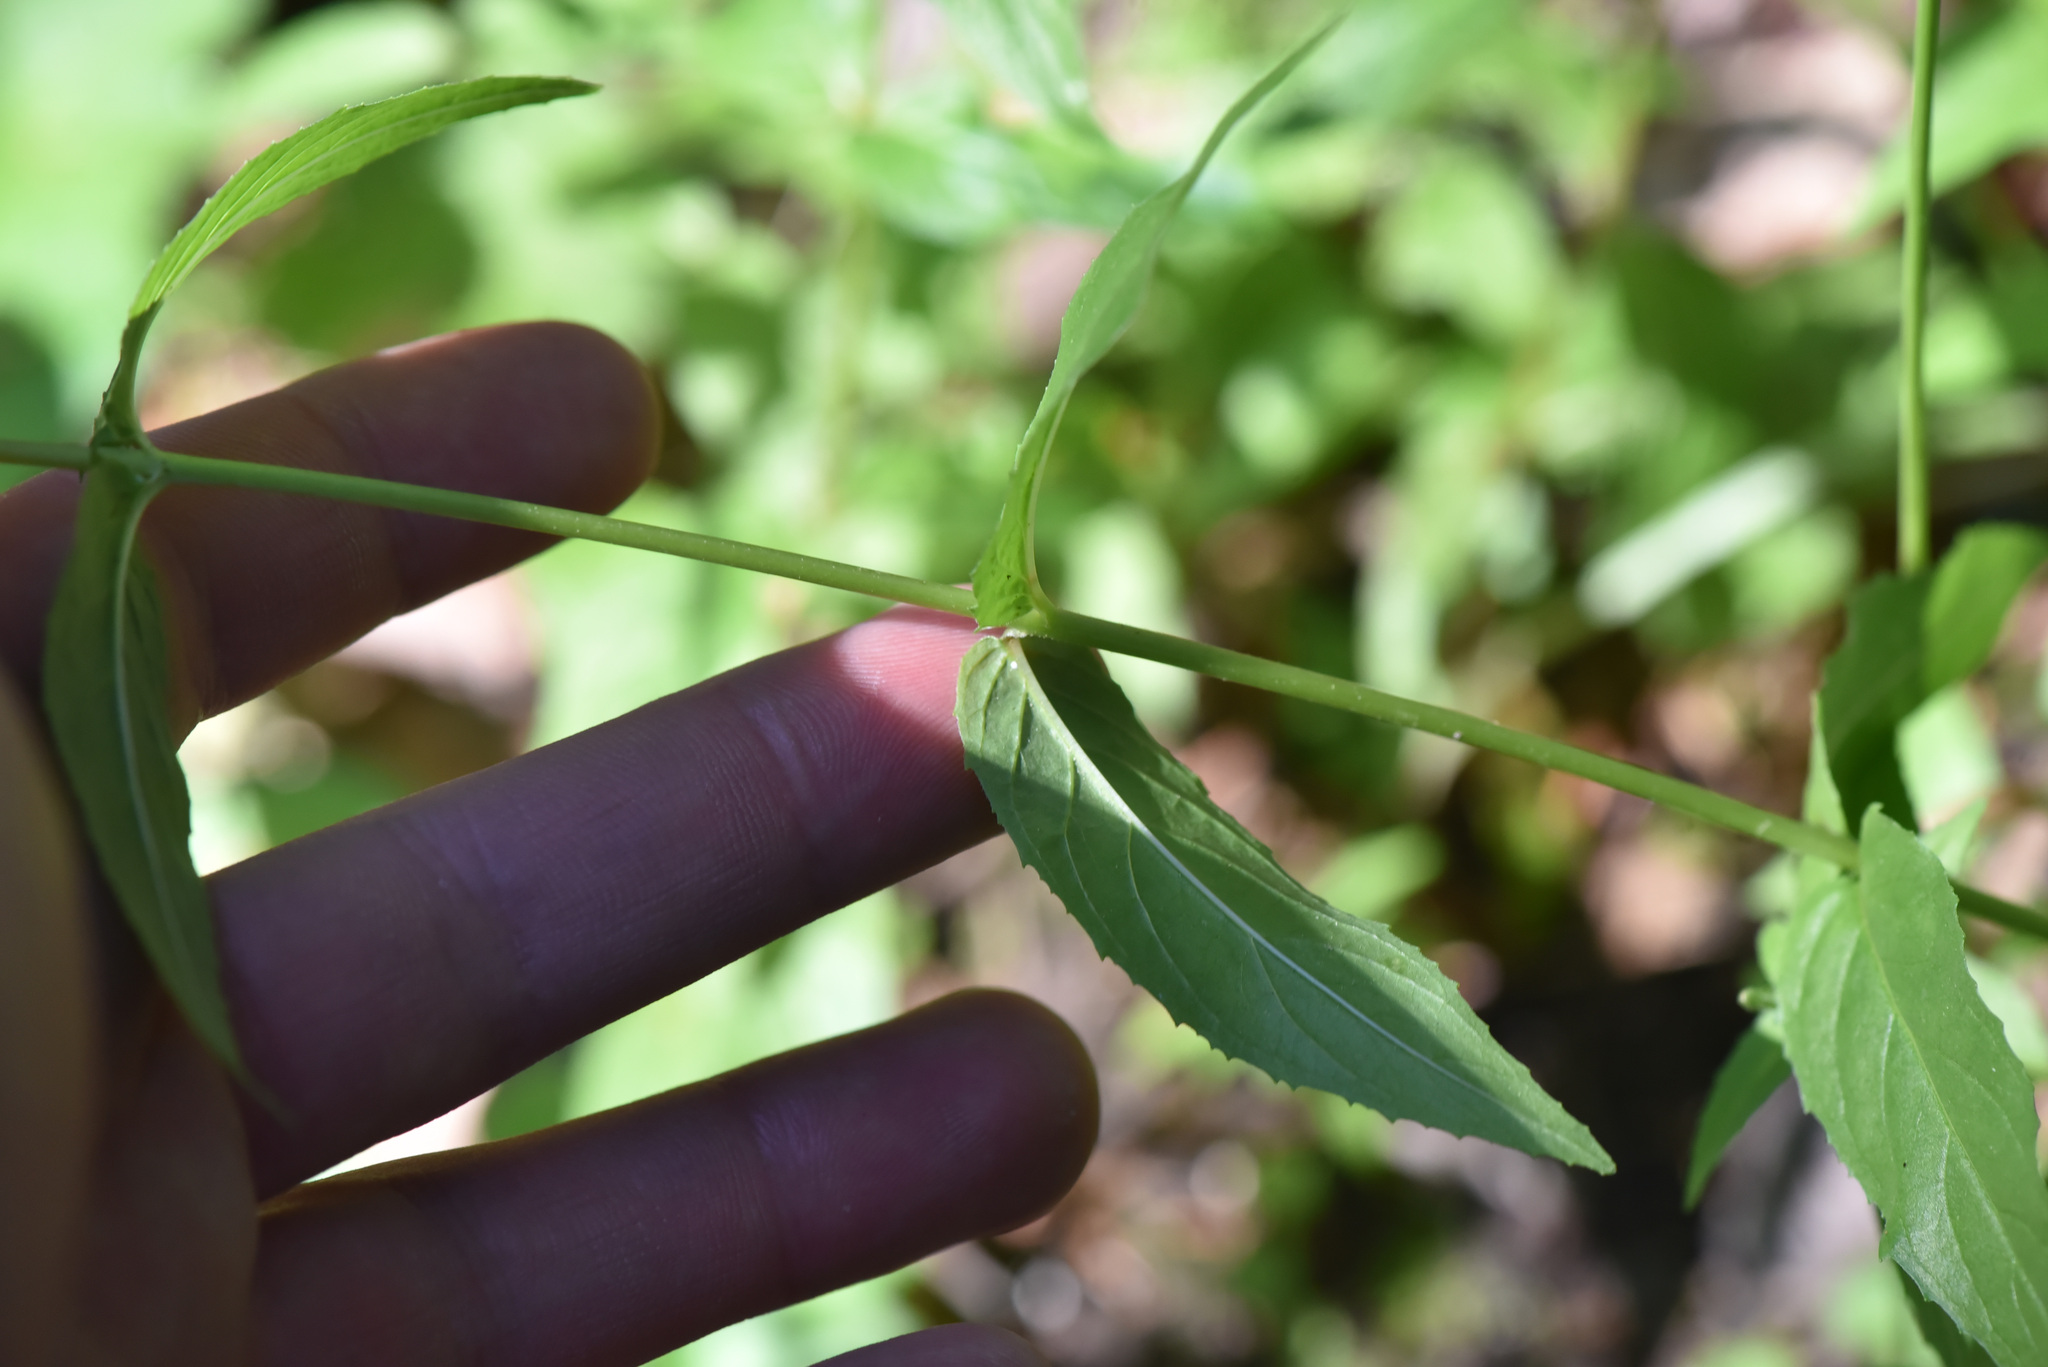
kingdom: Plantae
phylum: Tracheophyta
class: Magnoliopsida
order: Myrtales
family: Onagraceae
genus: Epilobium
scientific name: Epilobium ciliatum
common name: American willowherb
